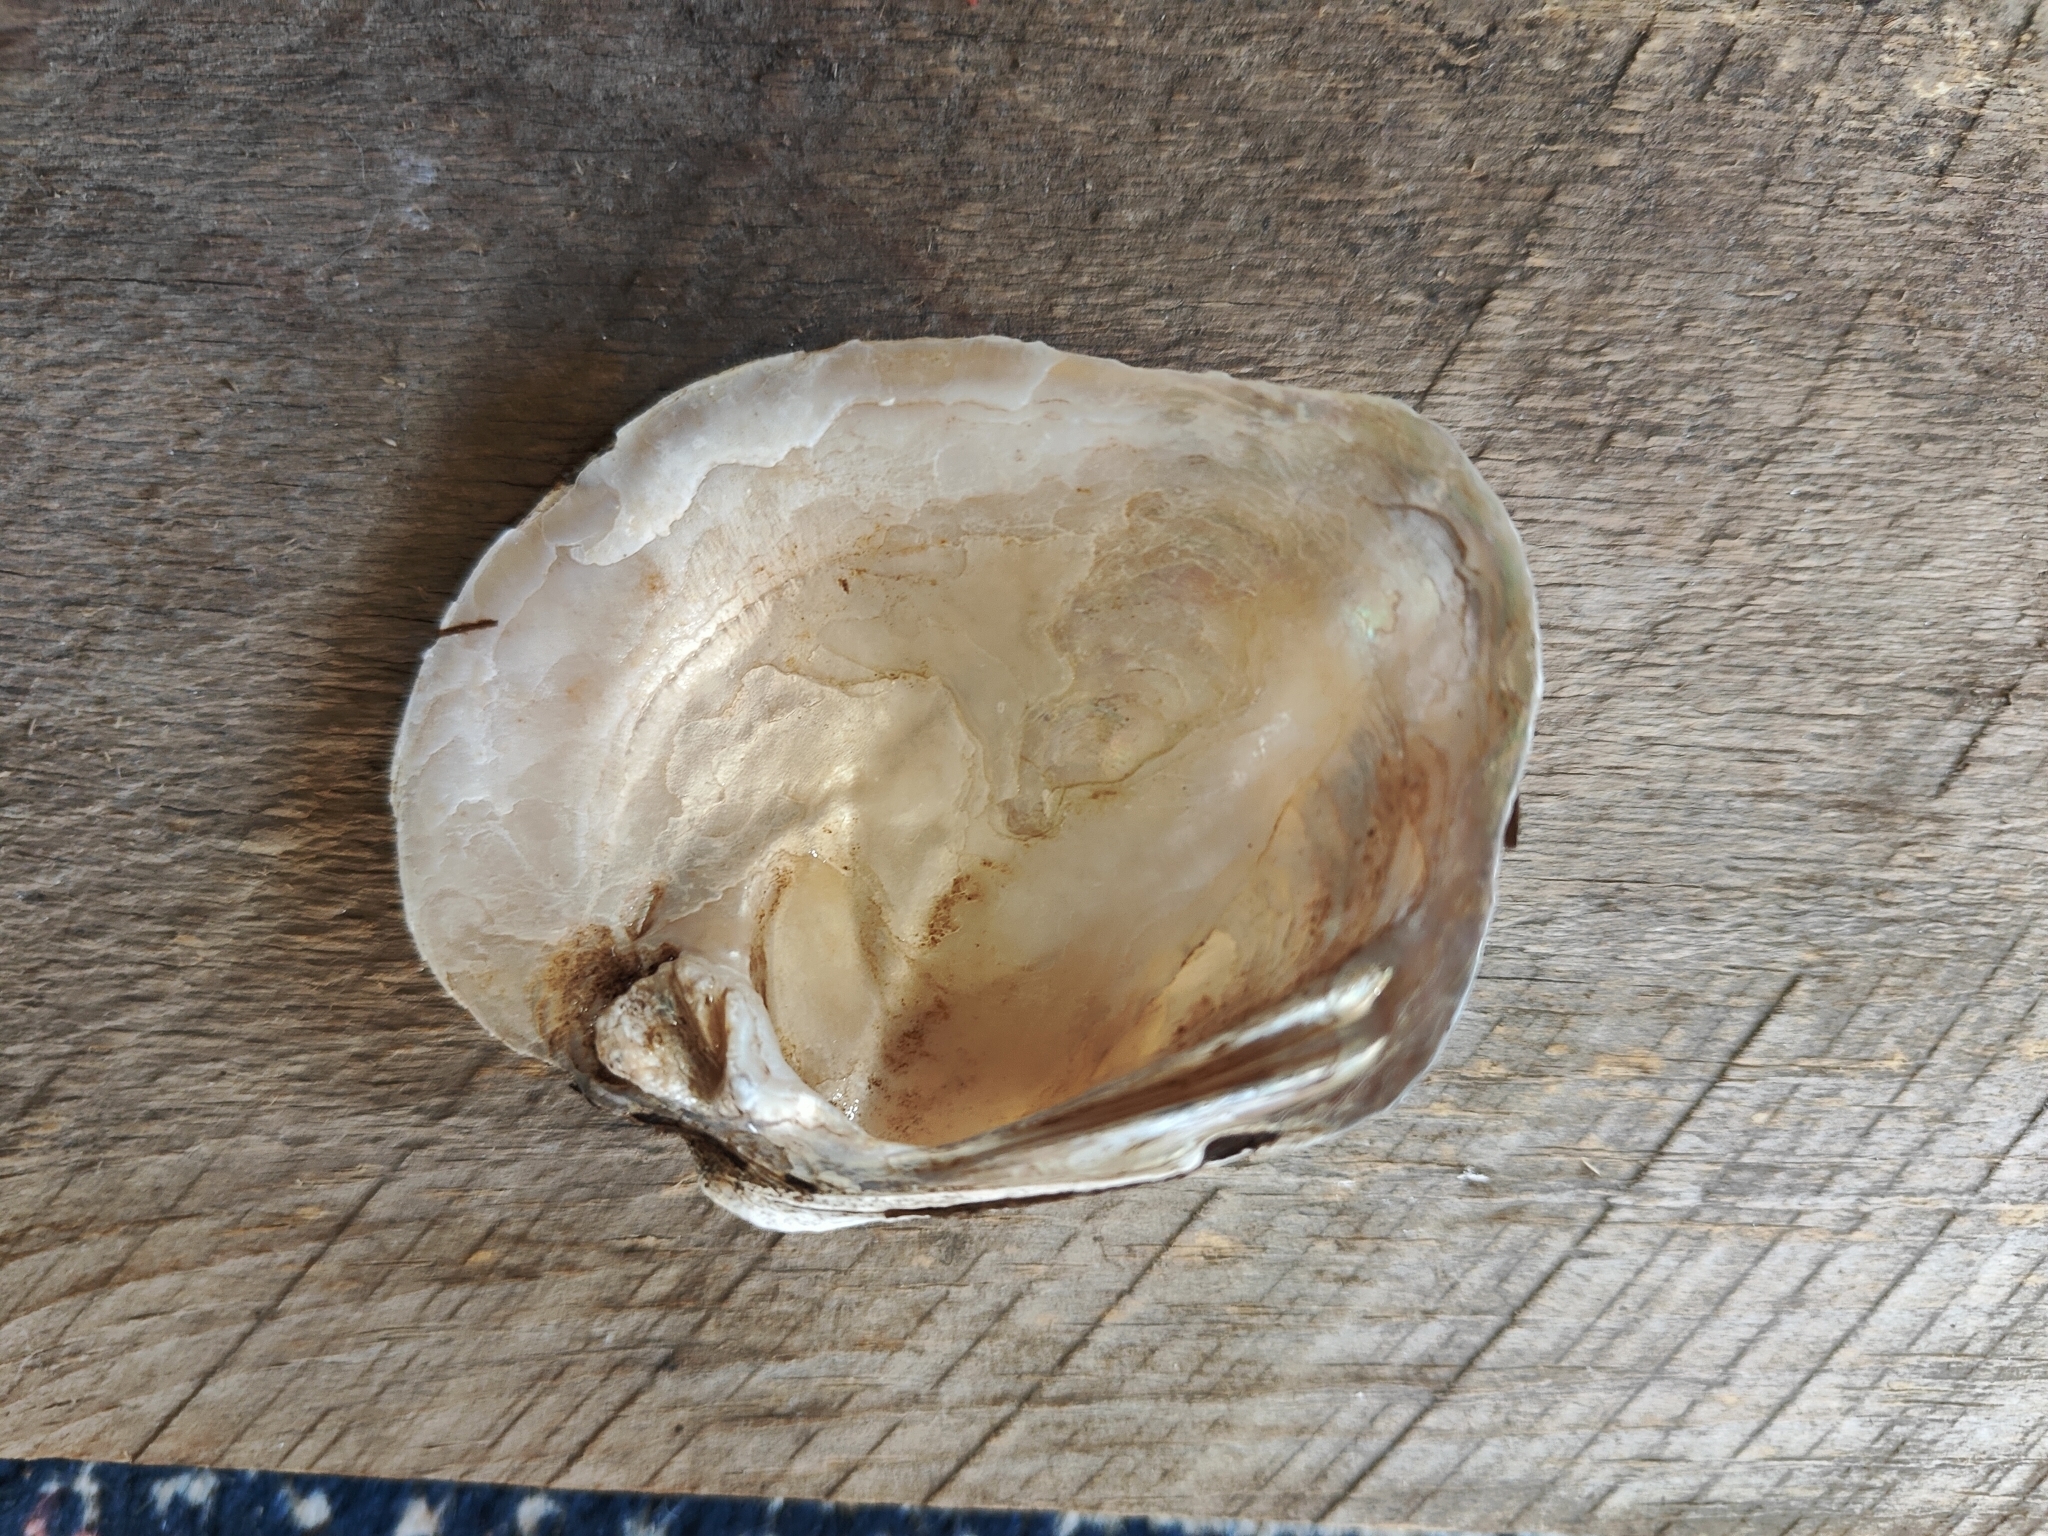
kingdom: Animalia
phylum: Mollusca
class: Bivalvia
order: Unionida
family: Unionidae
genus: Quadrula
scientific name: Quadrula quadrula
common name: Mapleleaf
